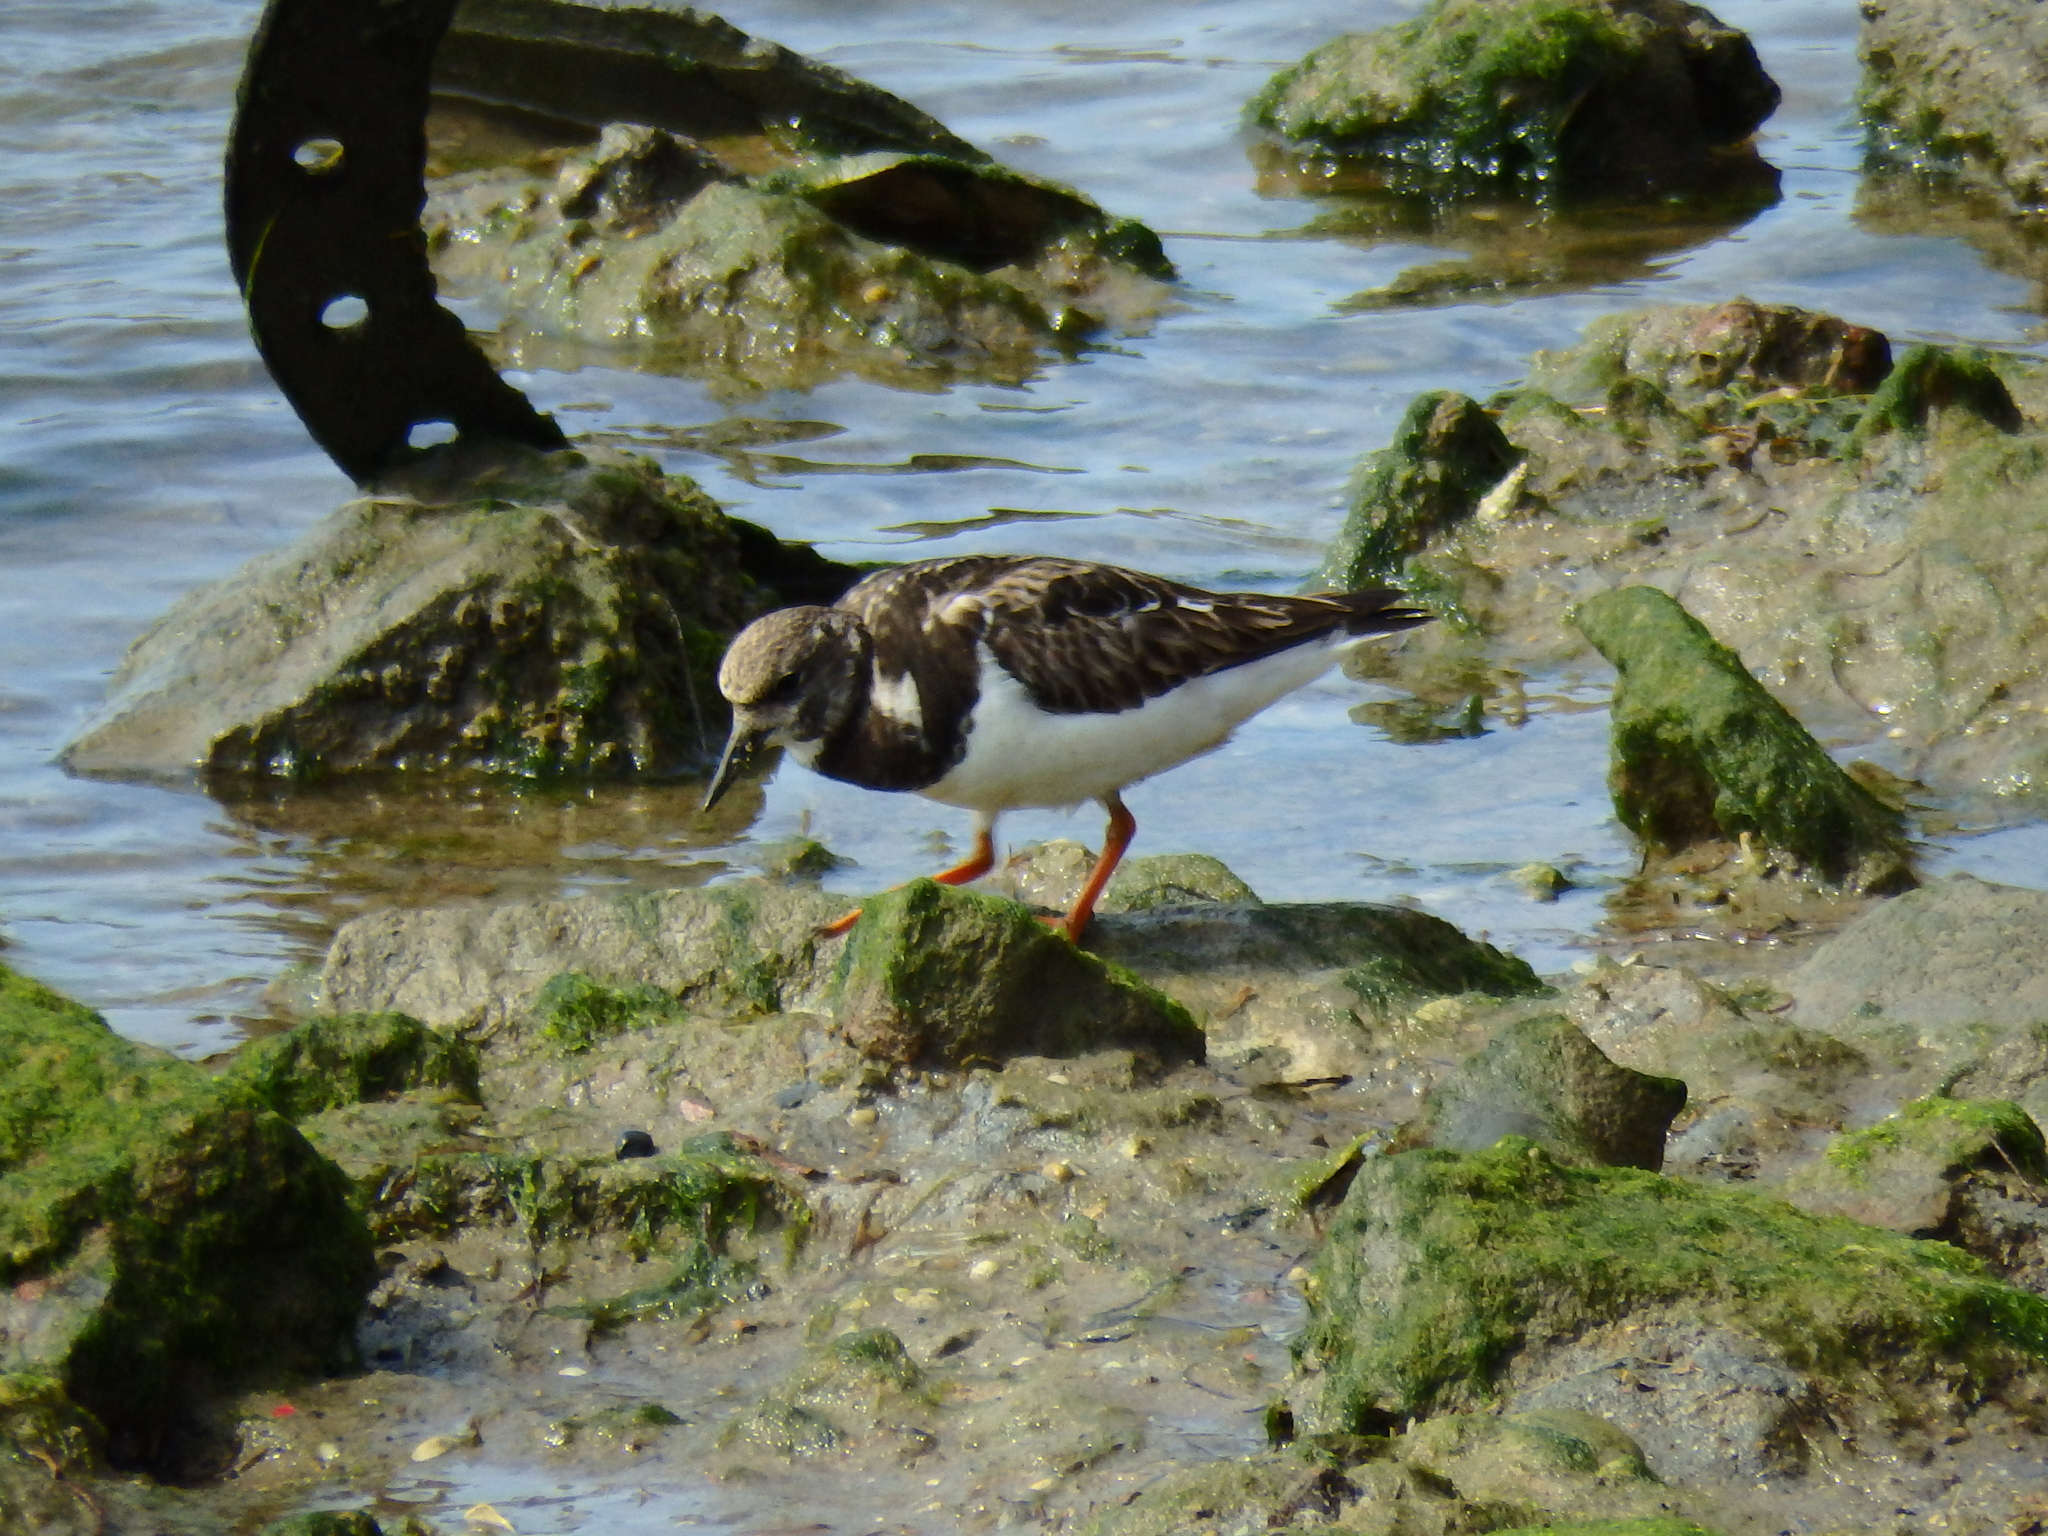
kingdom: Animalia
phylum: Chordata
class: Aves
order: Charadriiformes
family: Scolopacidae
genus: Arenaria
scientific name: Arenaria interpres
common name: Ruddy turnstone
